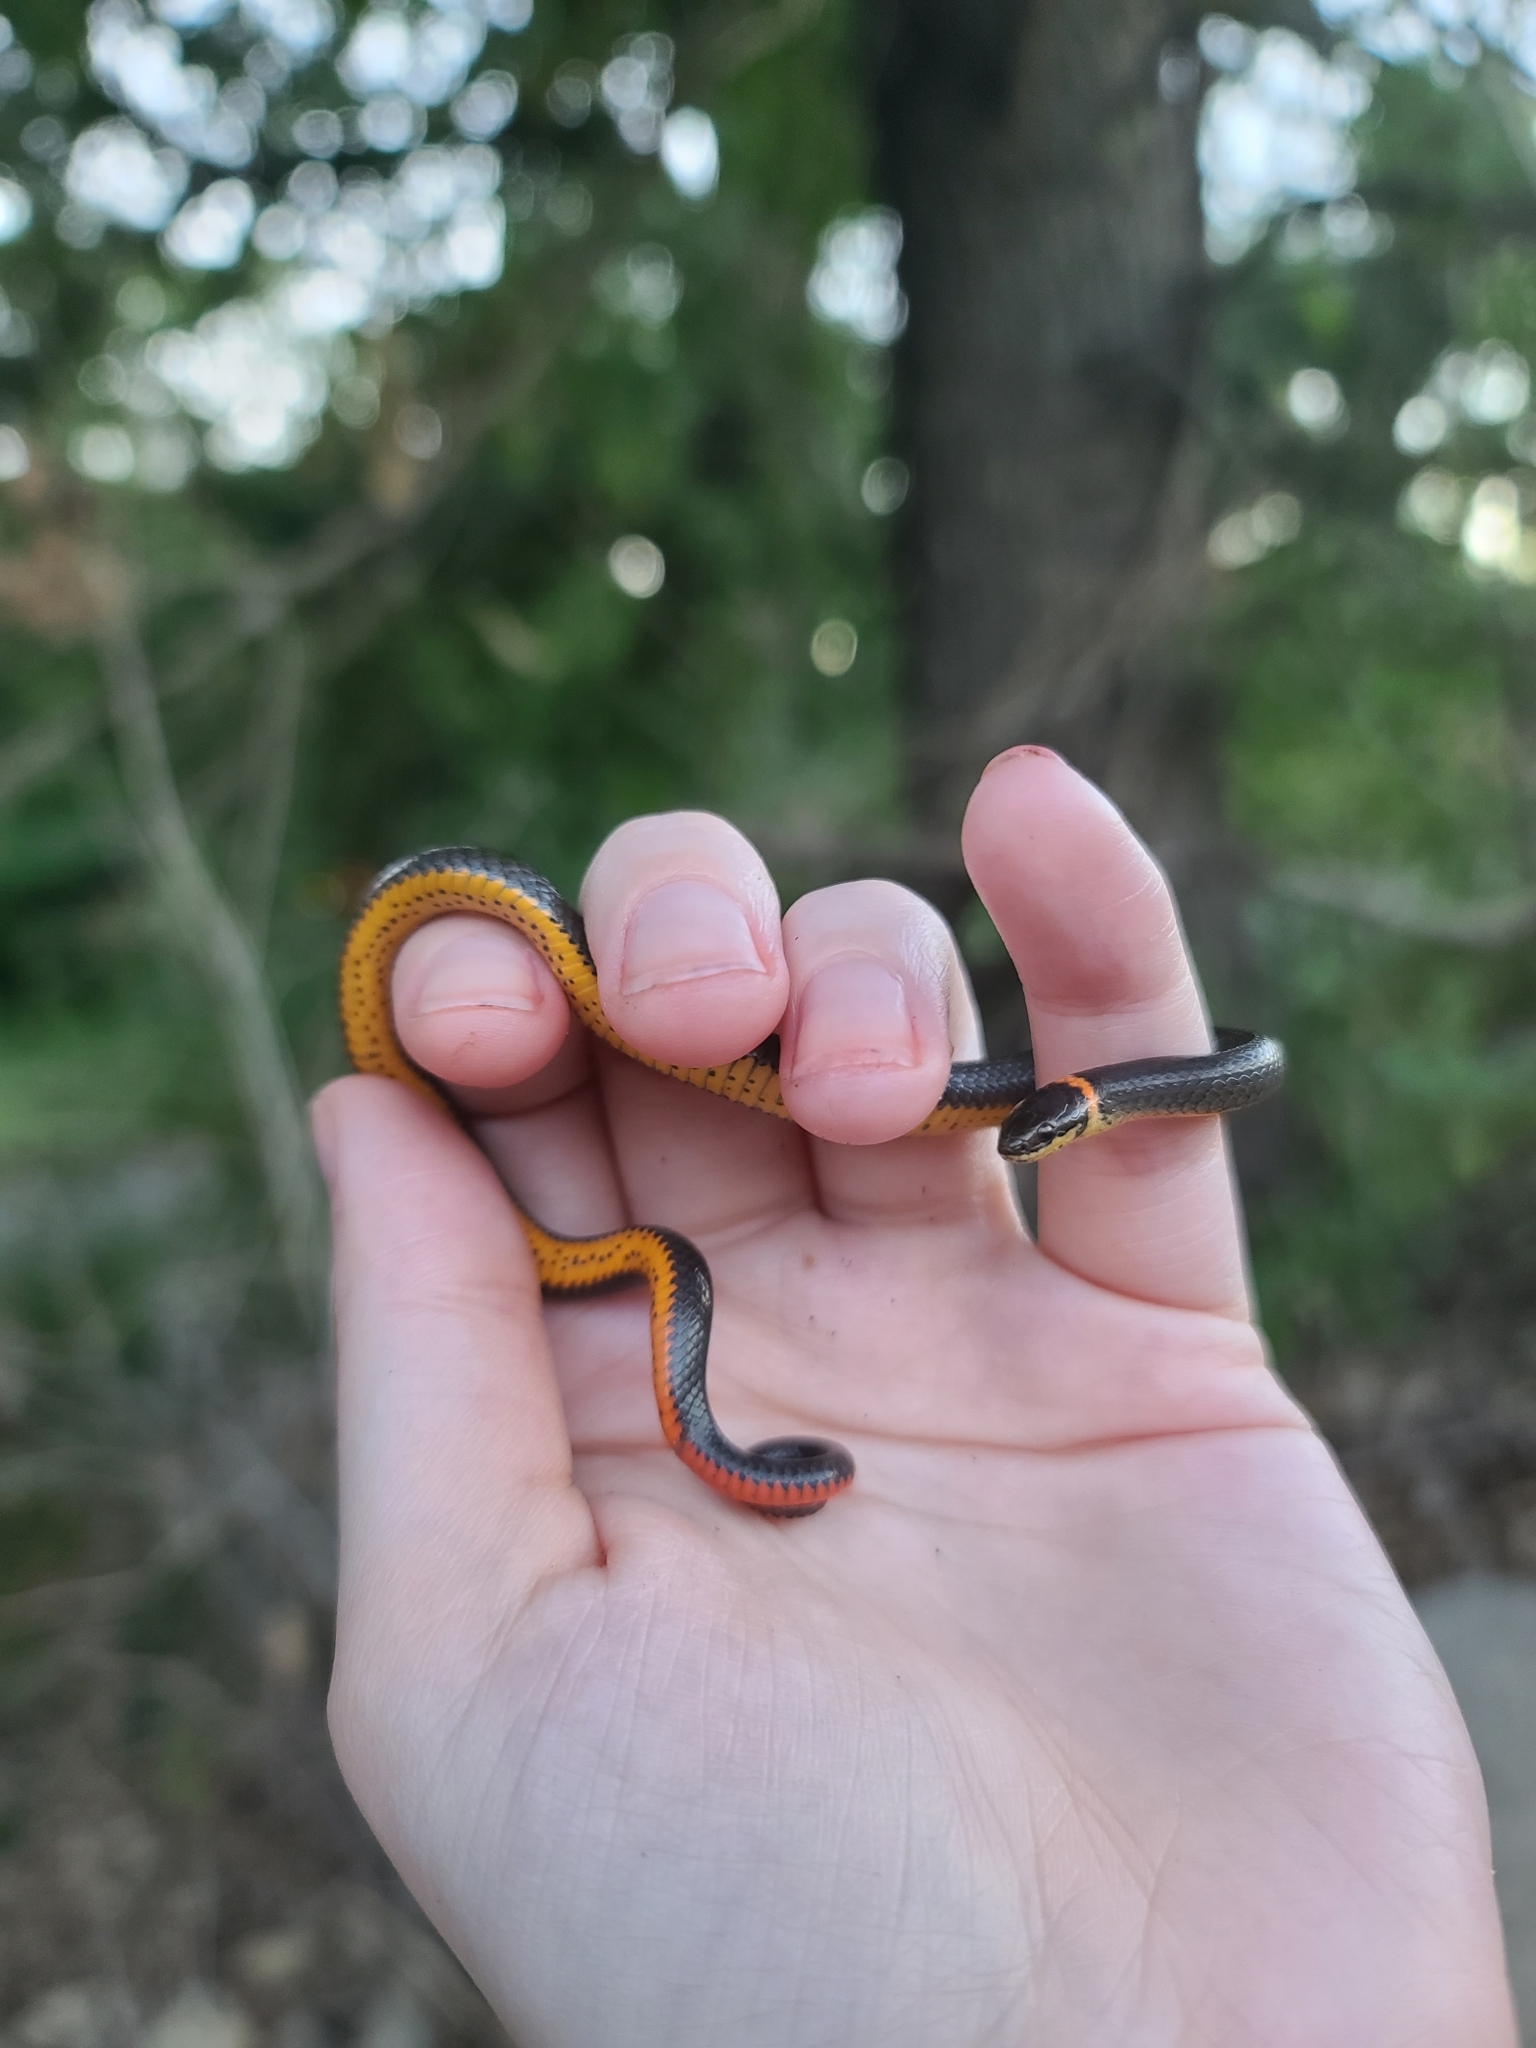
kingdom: Animalia
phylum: Chordata
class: Squamata
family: Colubridae
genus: Diadophis
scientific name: Diadophis punctatus
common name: Ringneck snake
